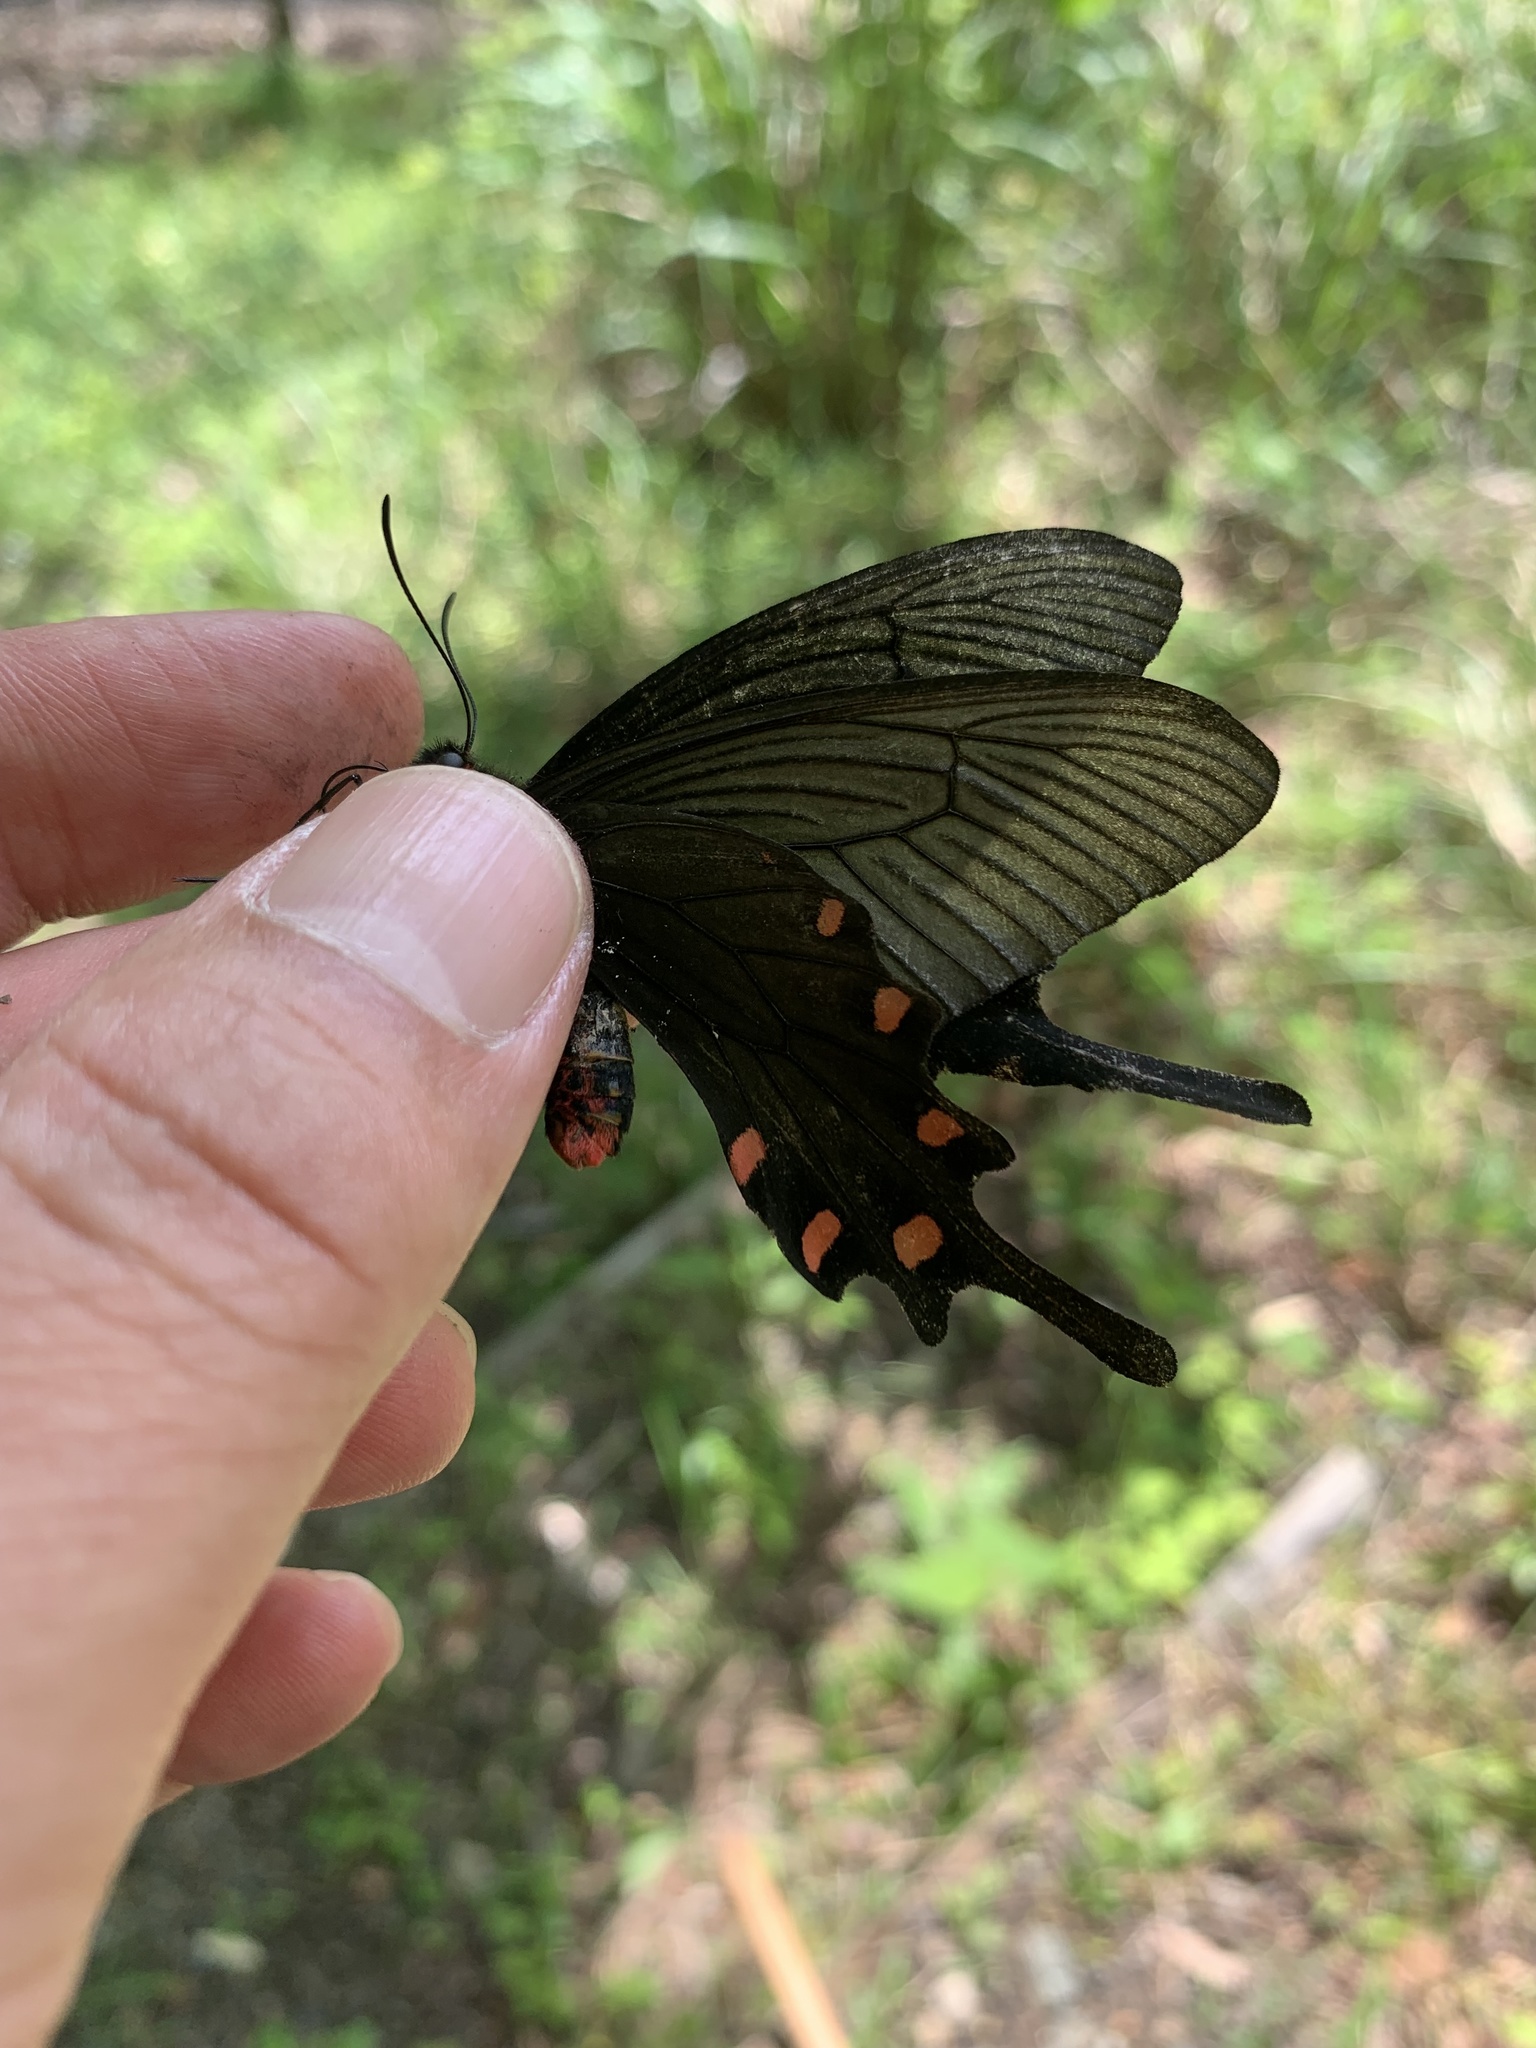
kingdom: Animalia
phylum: Arthropoda
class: Insecta
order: Lepidoptera
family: Papilionidae
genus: Byasa
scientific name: Byasa alcinous
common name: Chinese windmill
